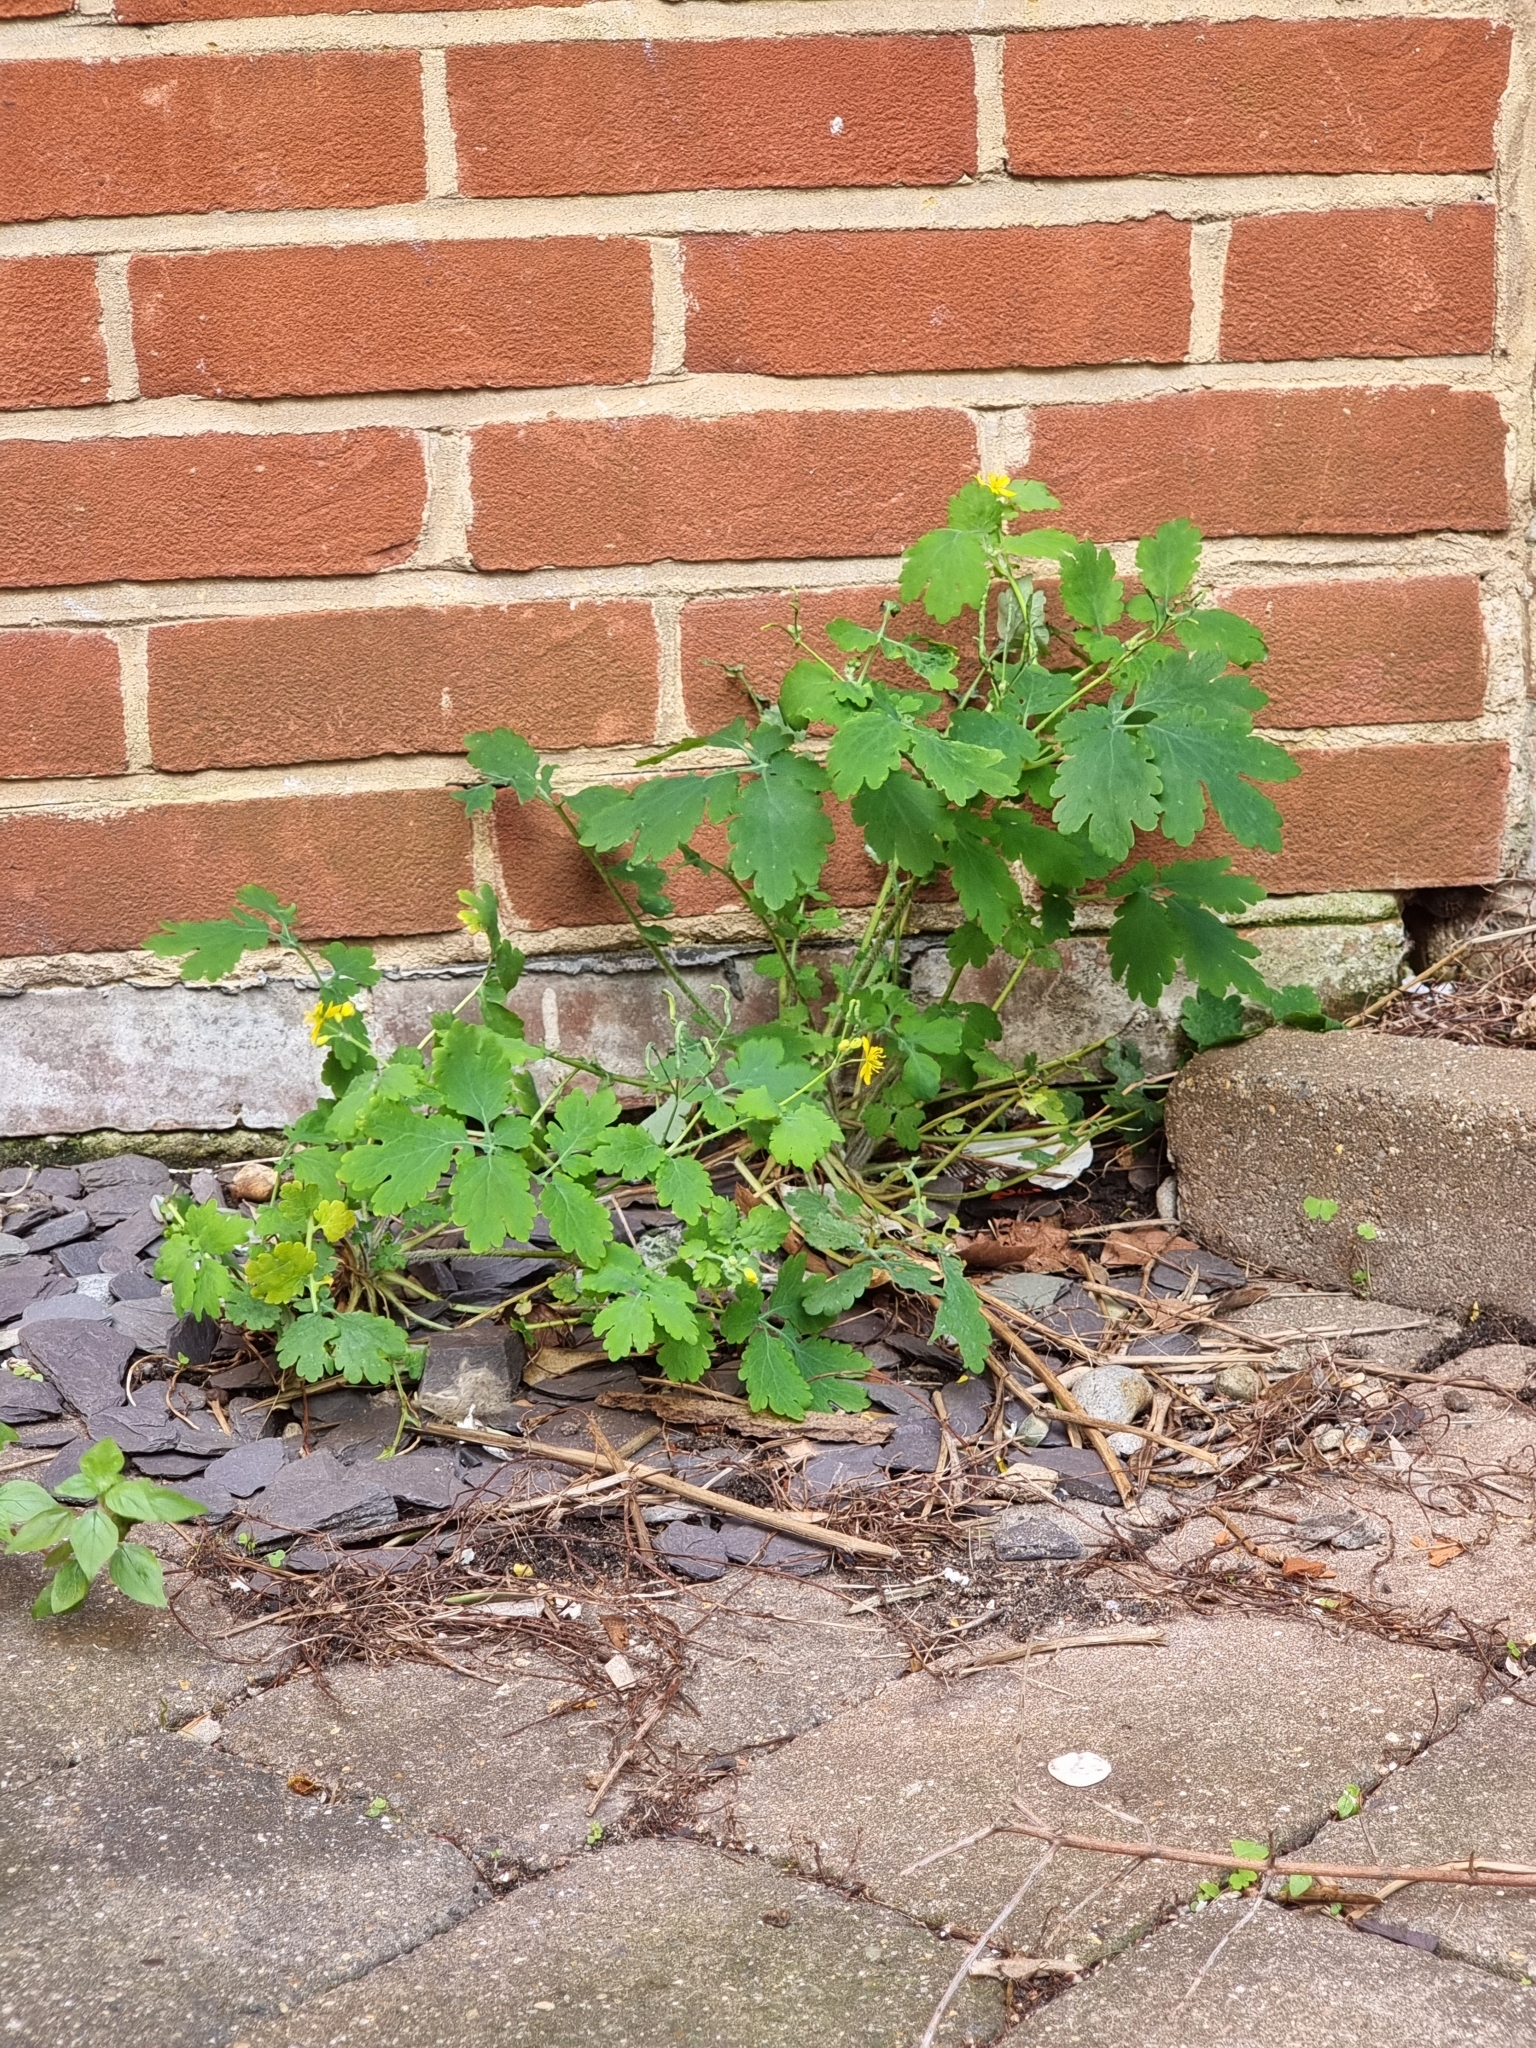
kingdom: Plantae
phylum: Tracheophyta
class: Magnoliopsida
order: Ranunculales
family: Papaveraceae
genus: Chelidonium
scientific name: Chelidonium majus
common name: Greater celandine
